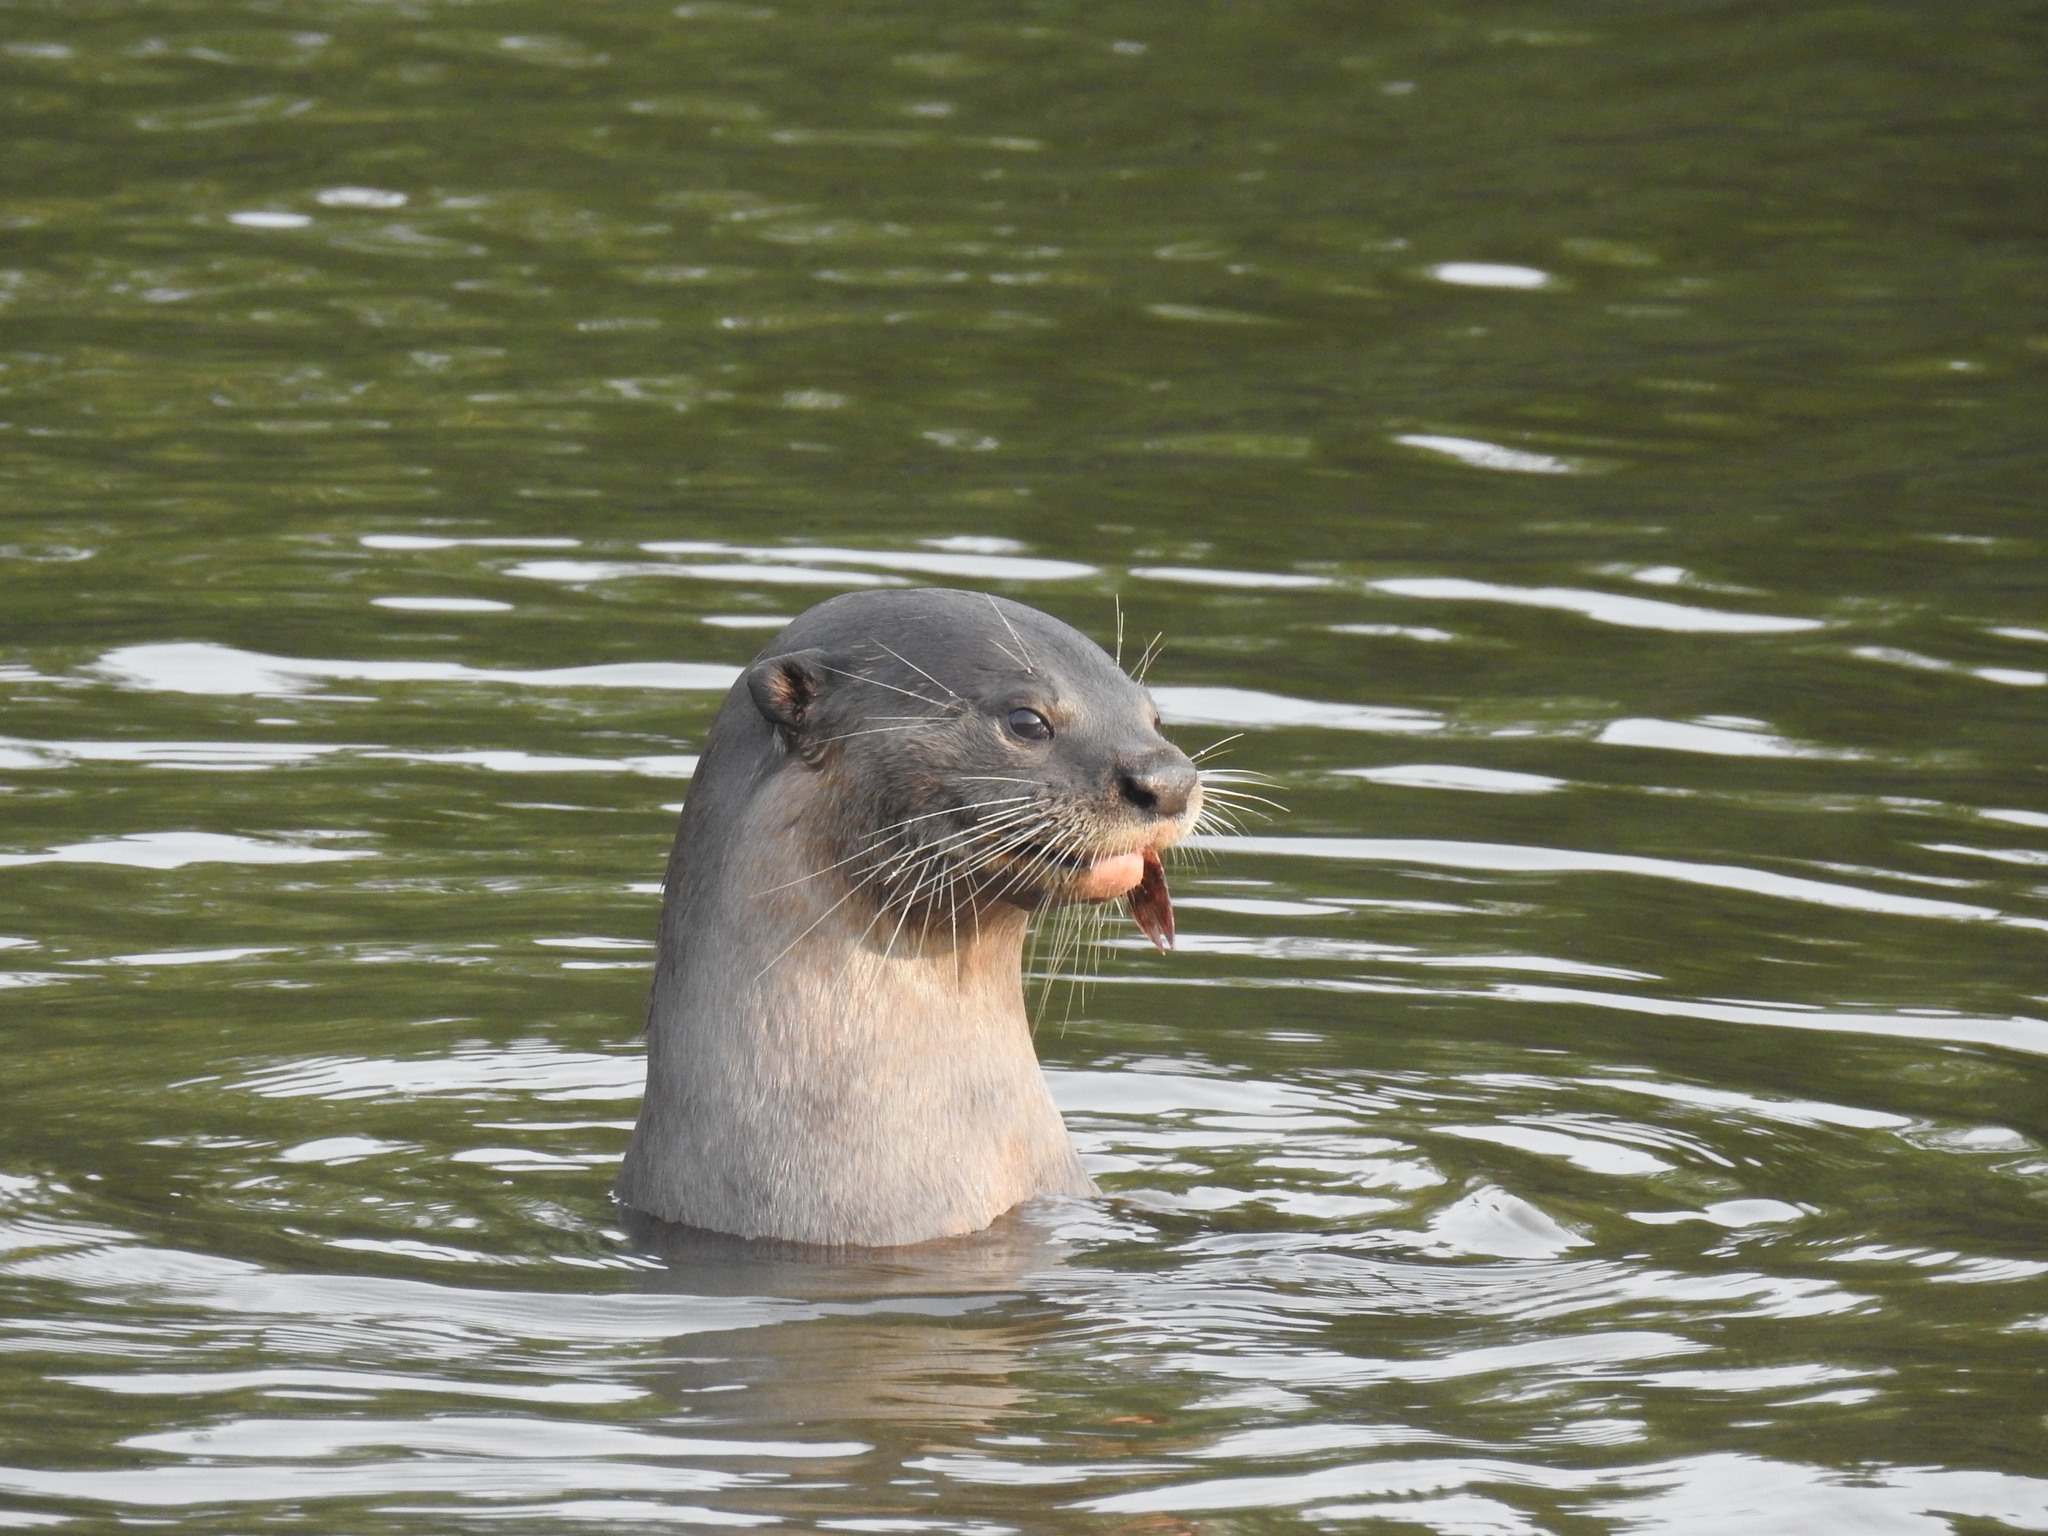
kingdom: Animalia
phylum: Chordata
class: Mammalia
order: Carnivora
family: Mustelidae
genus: Lutrogale
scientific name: Lutrogale perspicillata
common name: Smooth-coated otter
